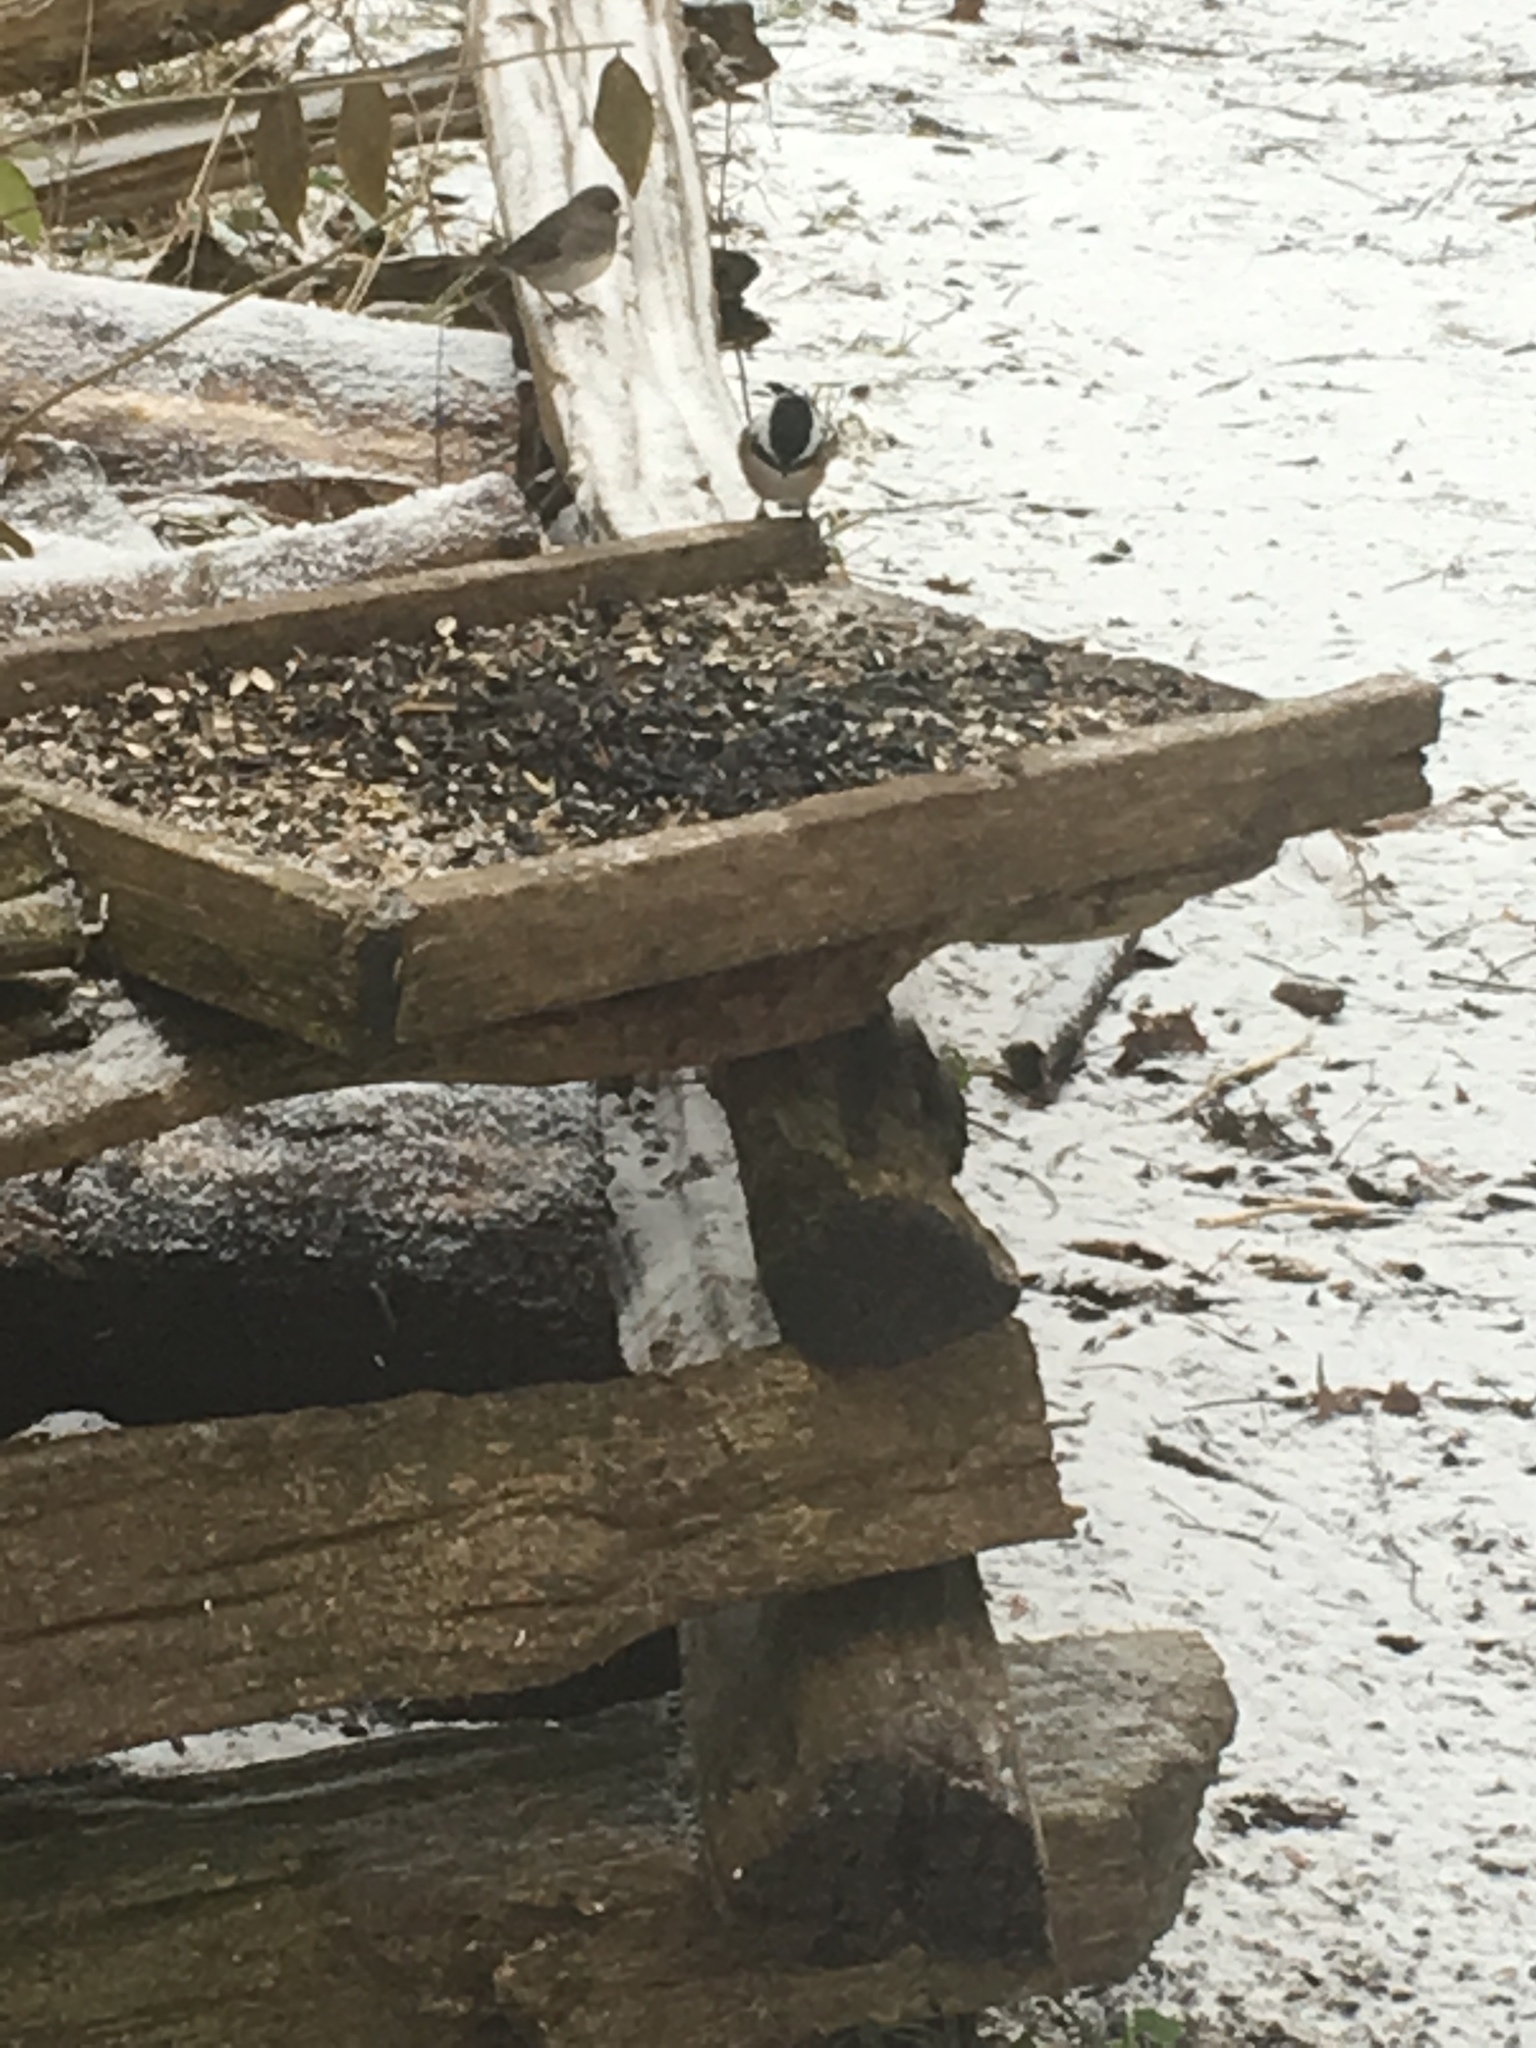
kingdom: Animalia
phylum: Chordata
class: Aves
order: Passeriformes
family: Paridae
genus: Poecile
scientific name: Poecile atricapillus
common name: Black-capped chickadee
